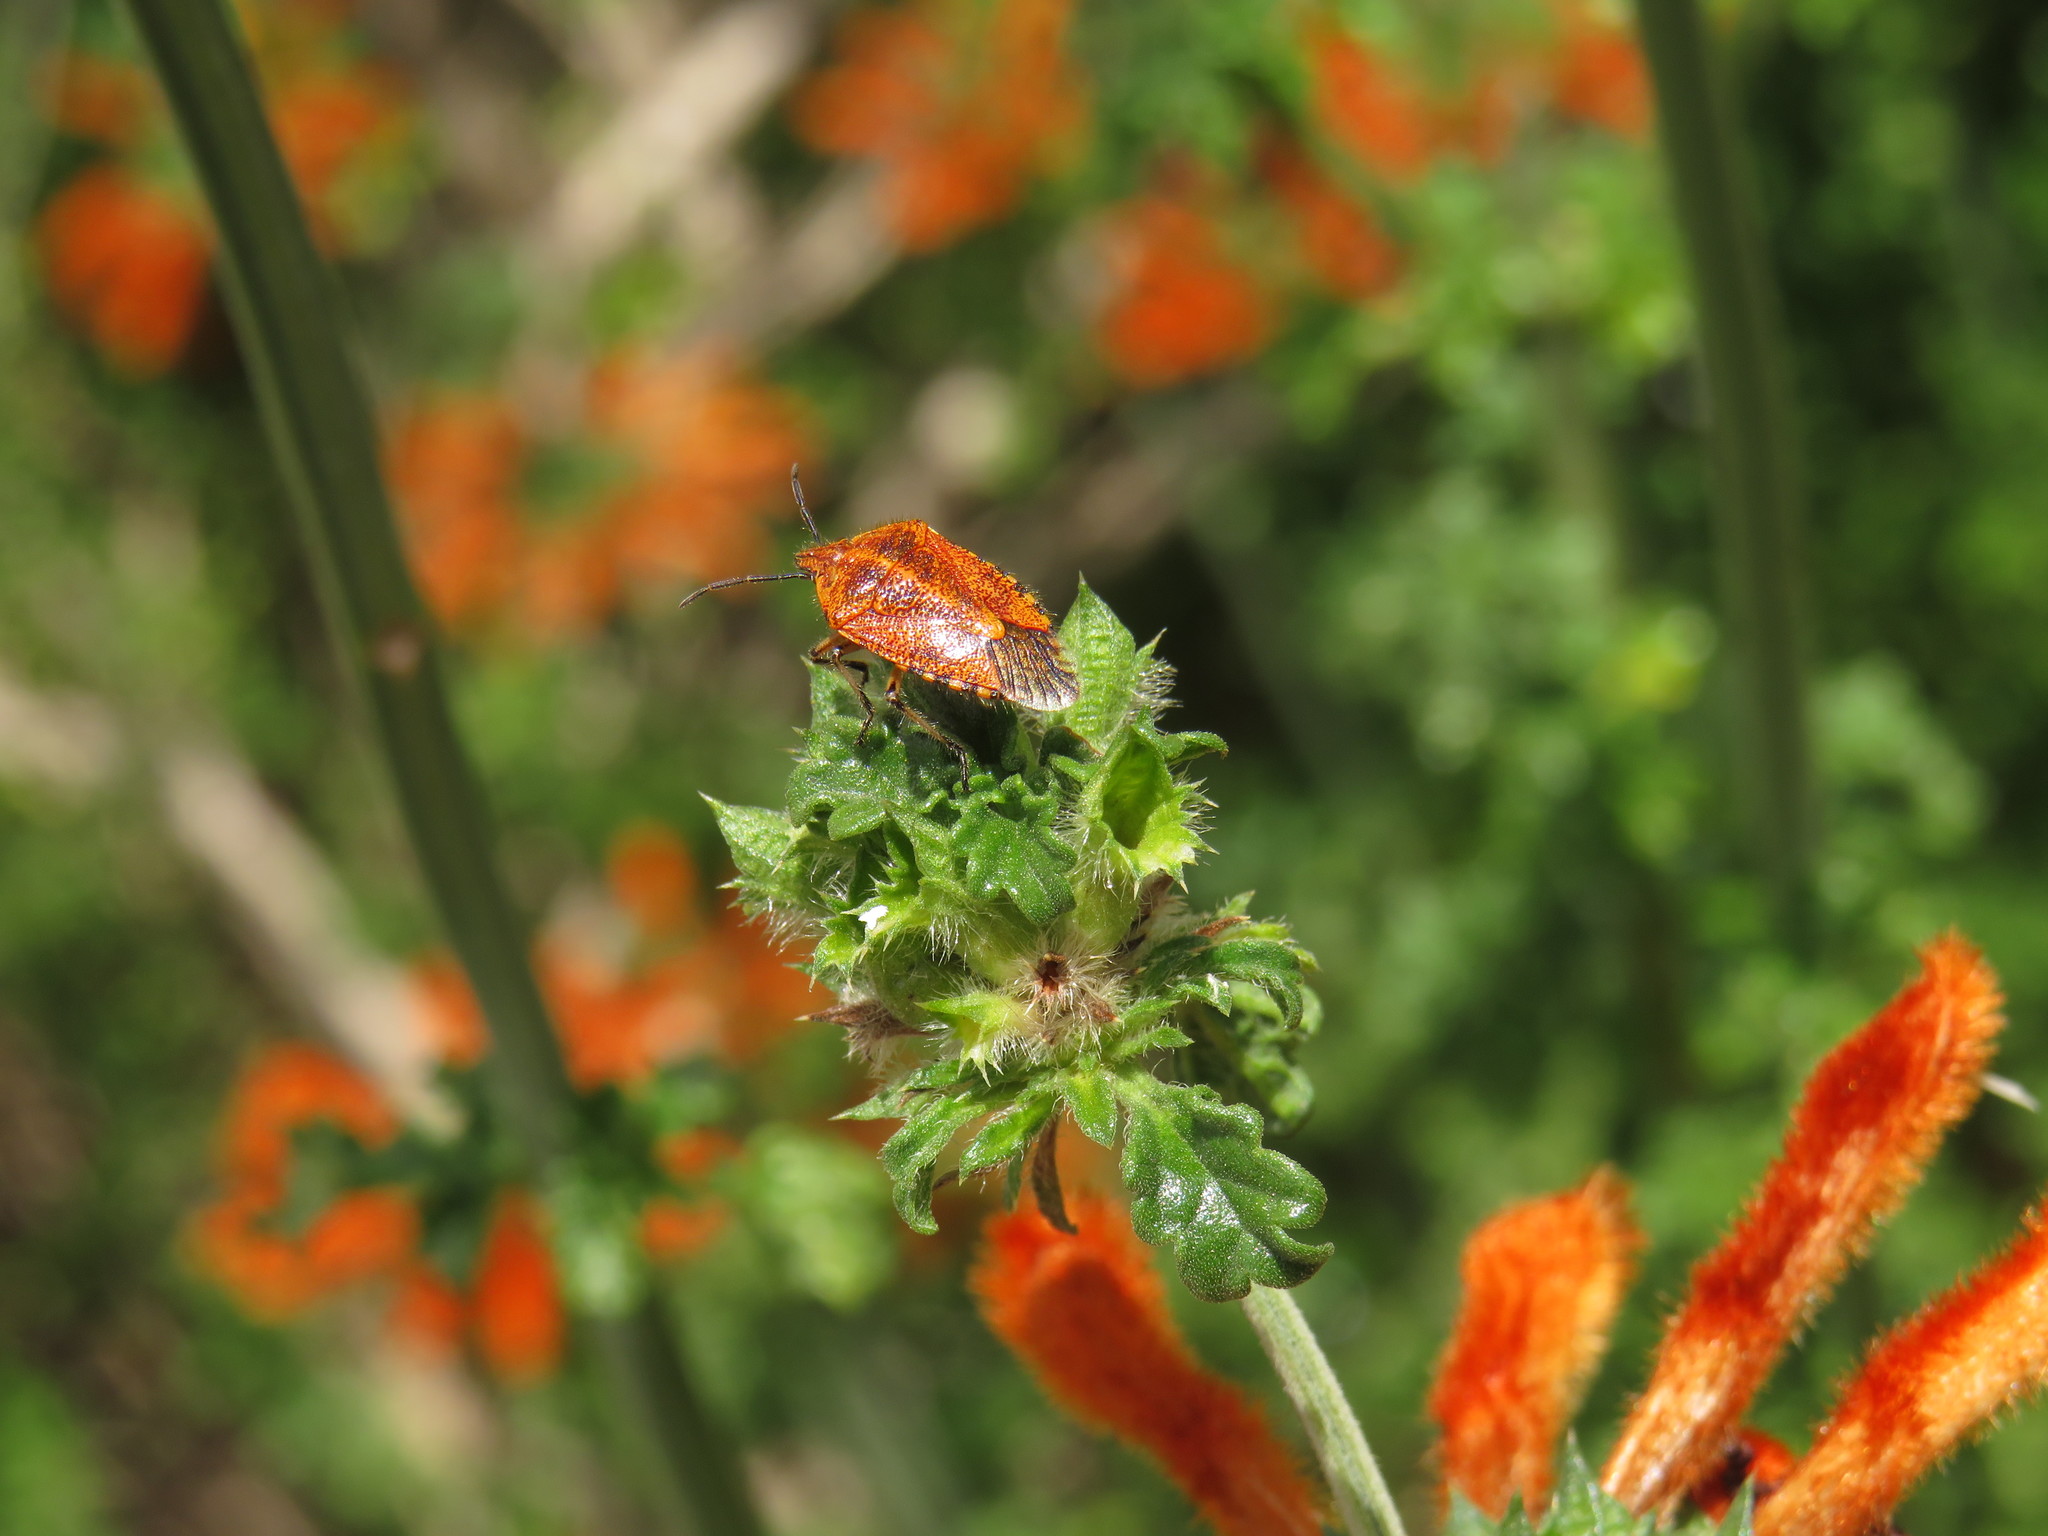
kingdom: Animalia
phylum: Arthropoda
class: Insecta
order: Hemiptera
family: Pentatomidae
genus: Agonoscelis
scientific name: Agonoscelis
